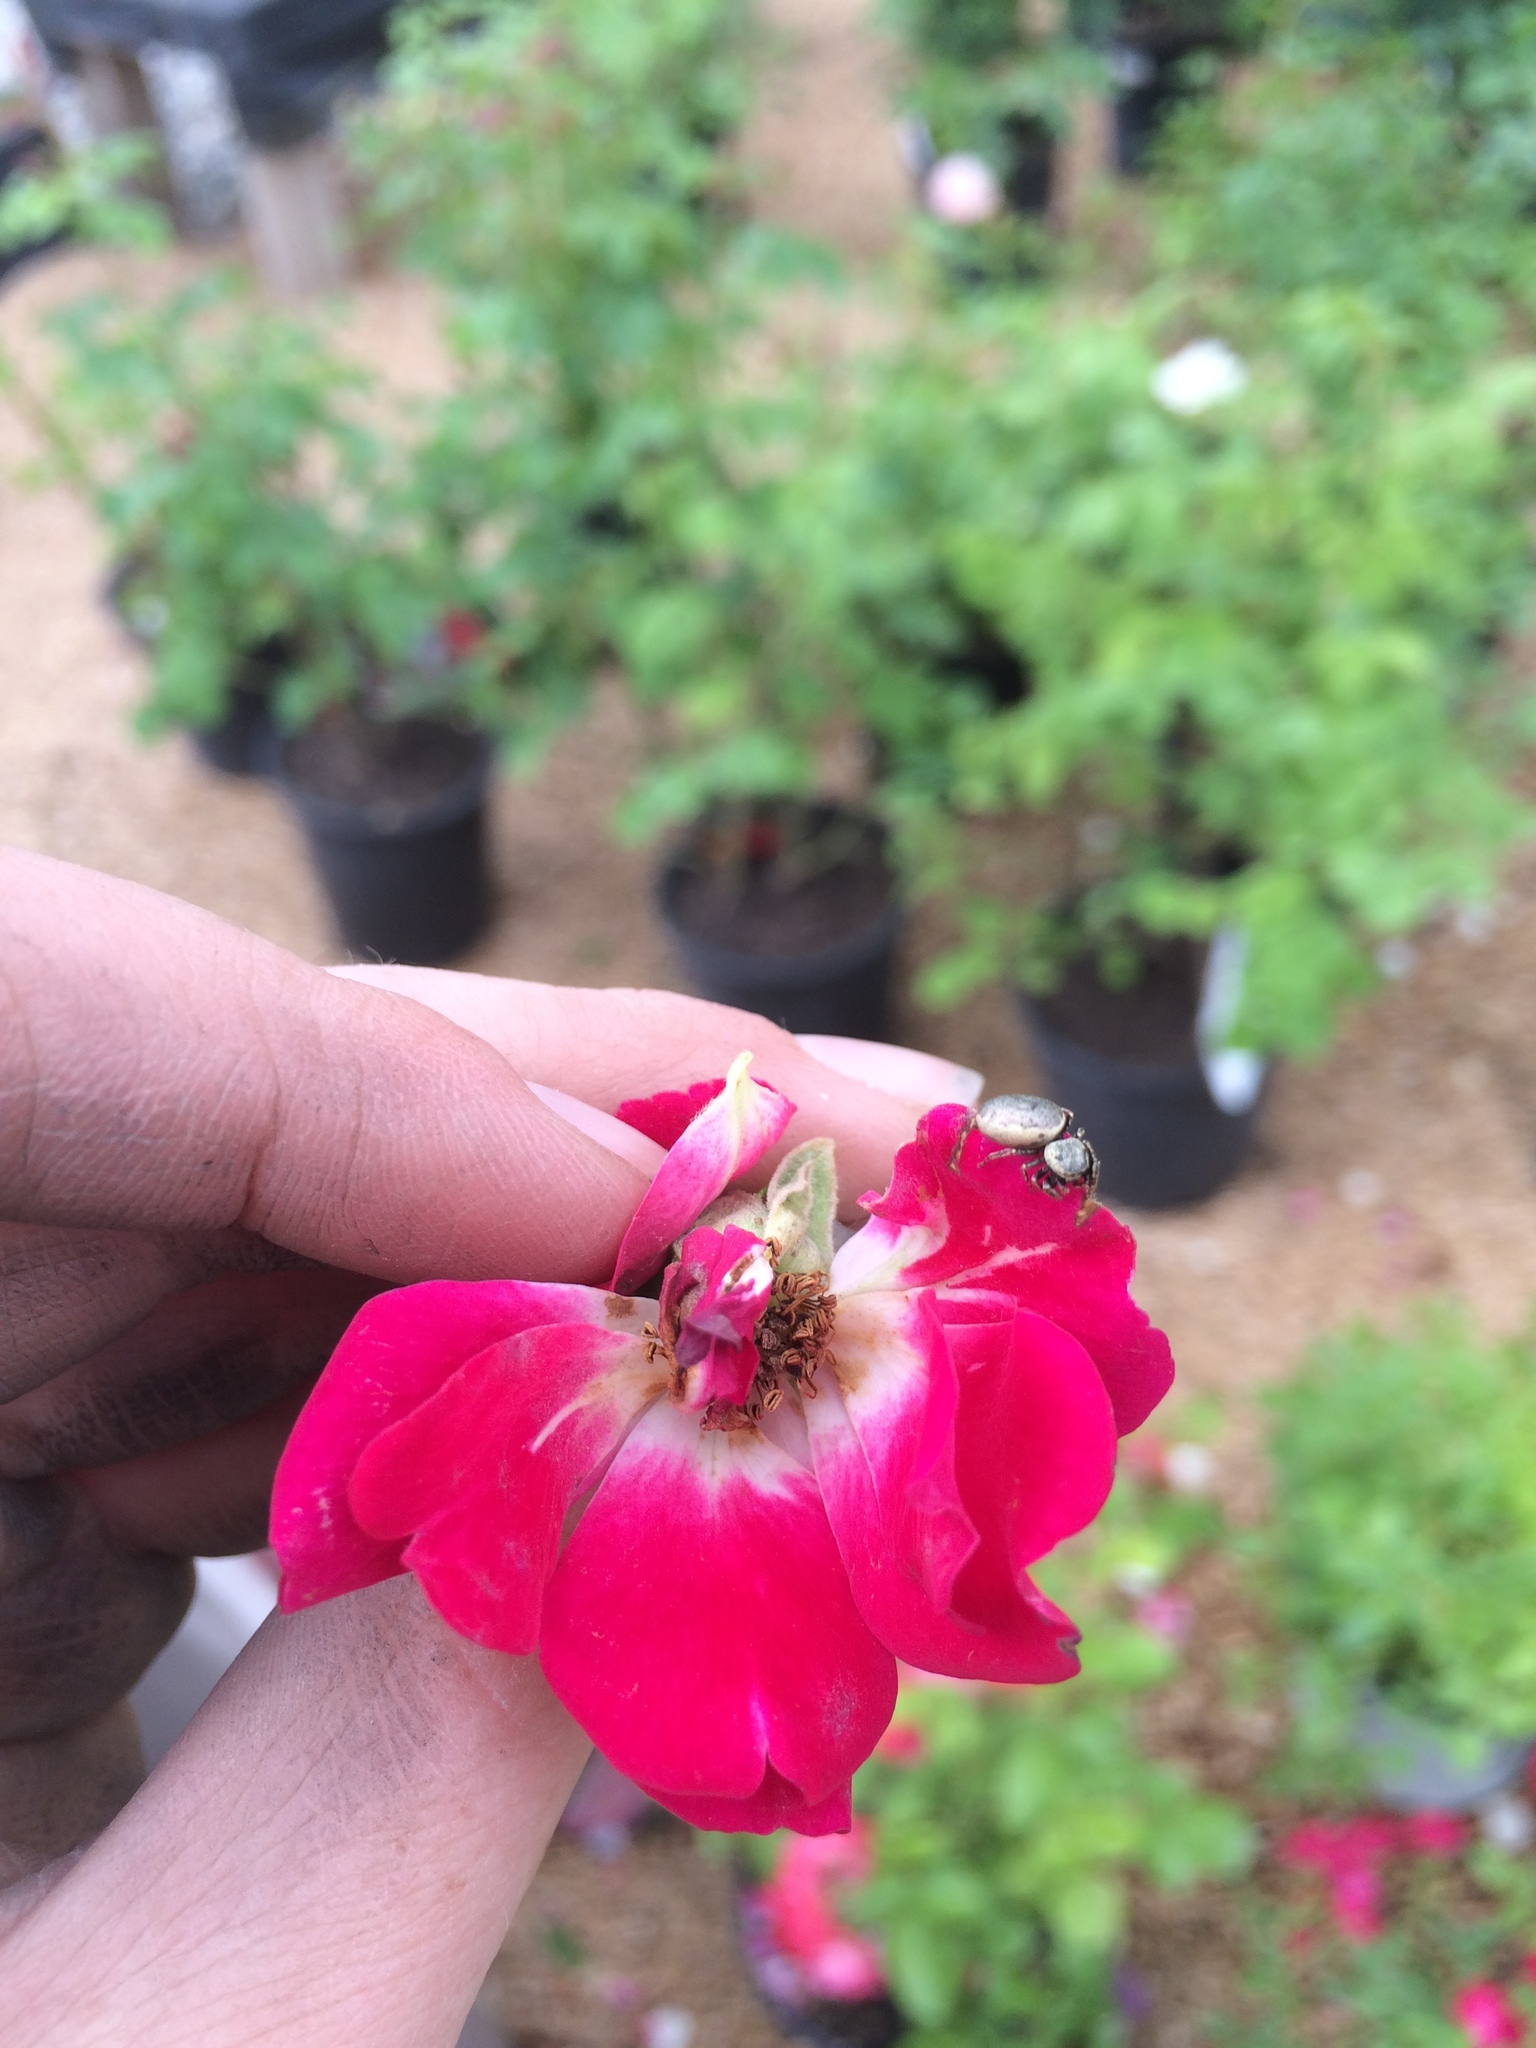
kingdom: Animalia
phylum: Arthropoda
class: Arachnida
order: Araneae
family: Salticidae
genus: Sassacus
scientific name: Sassacus papenhoei
